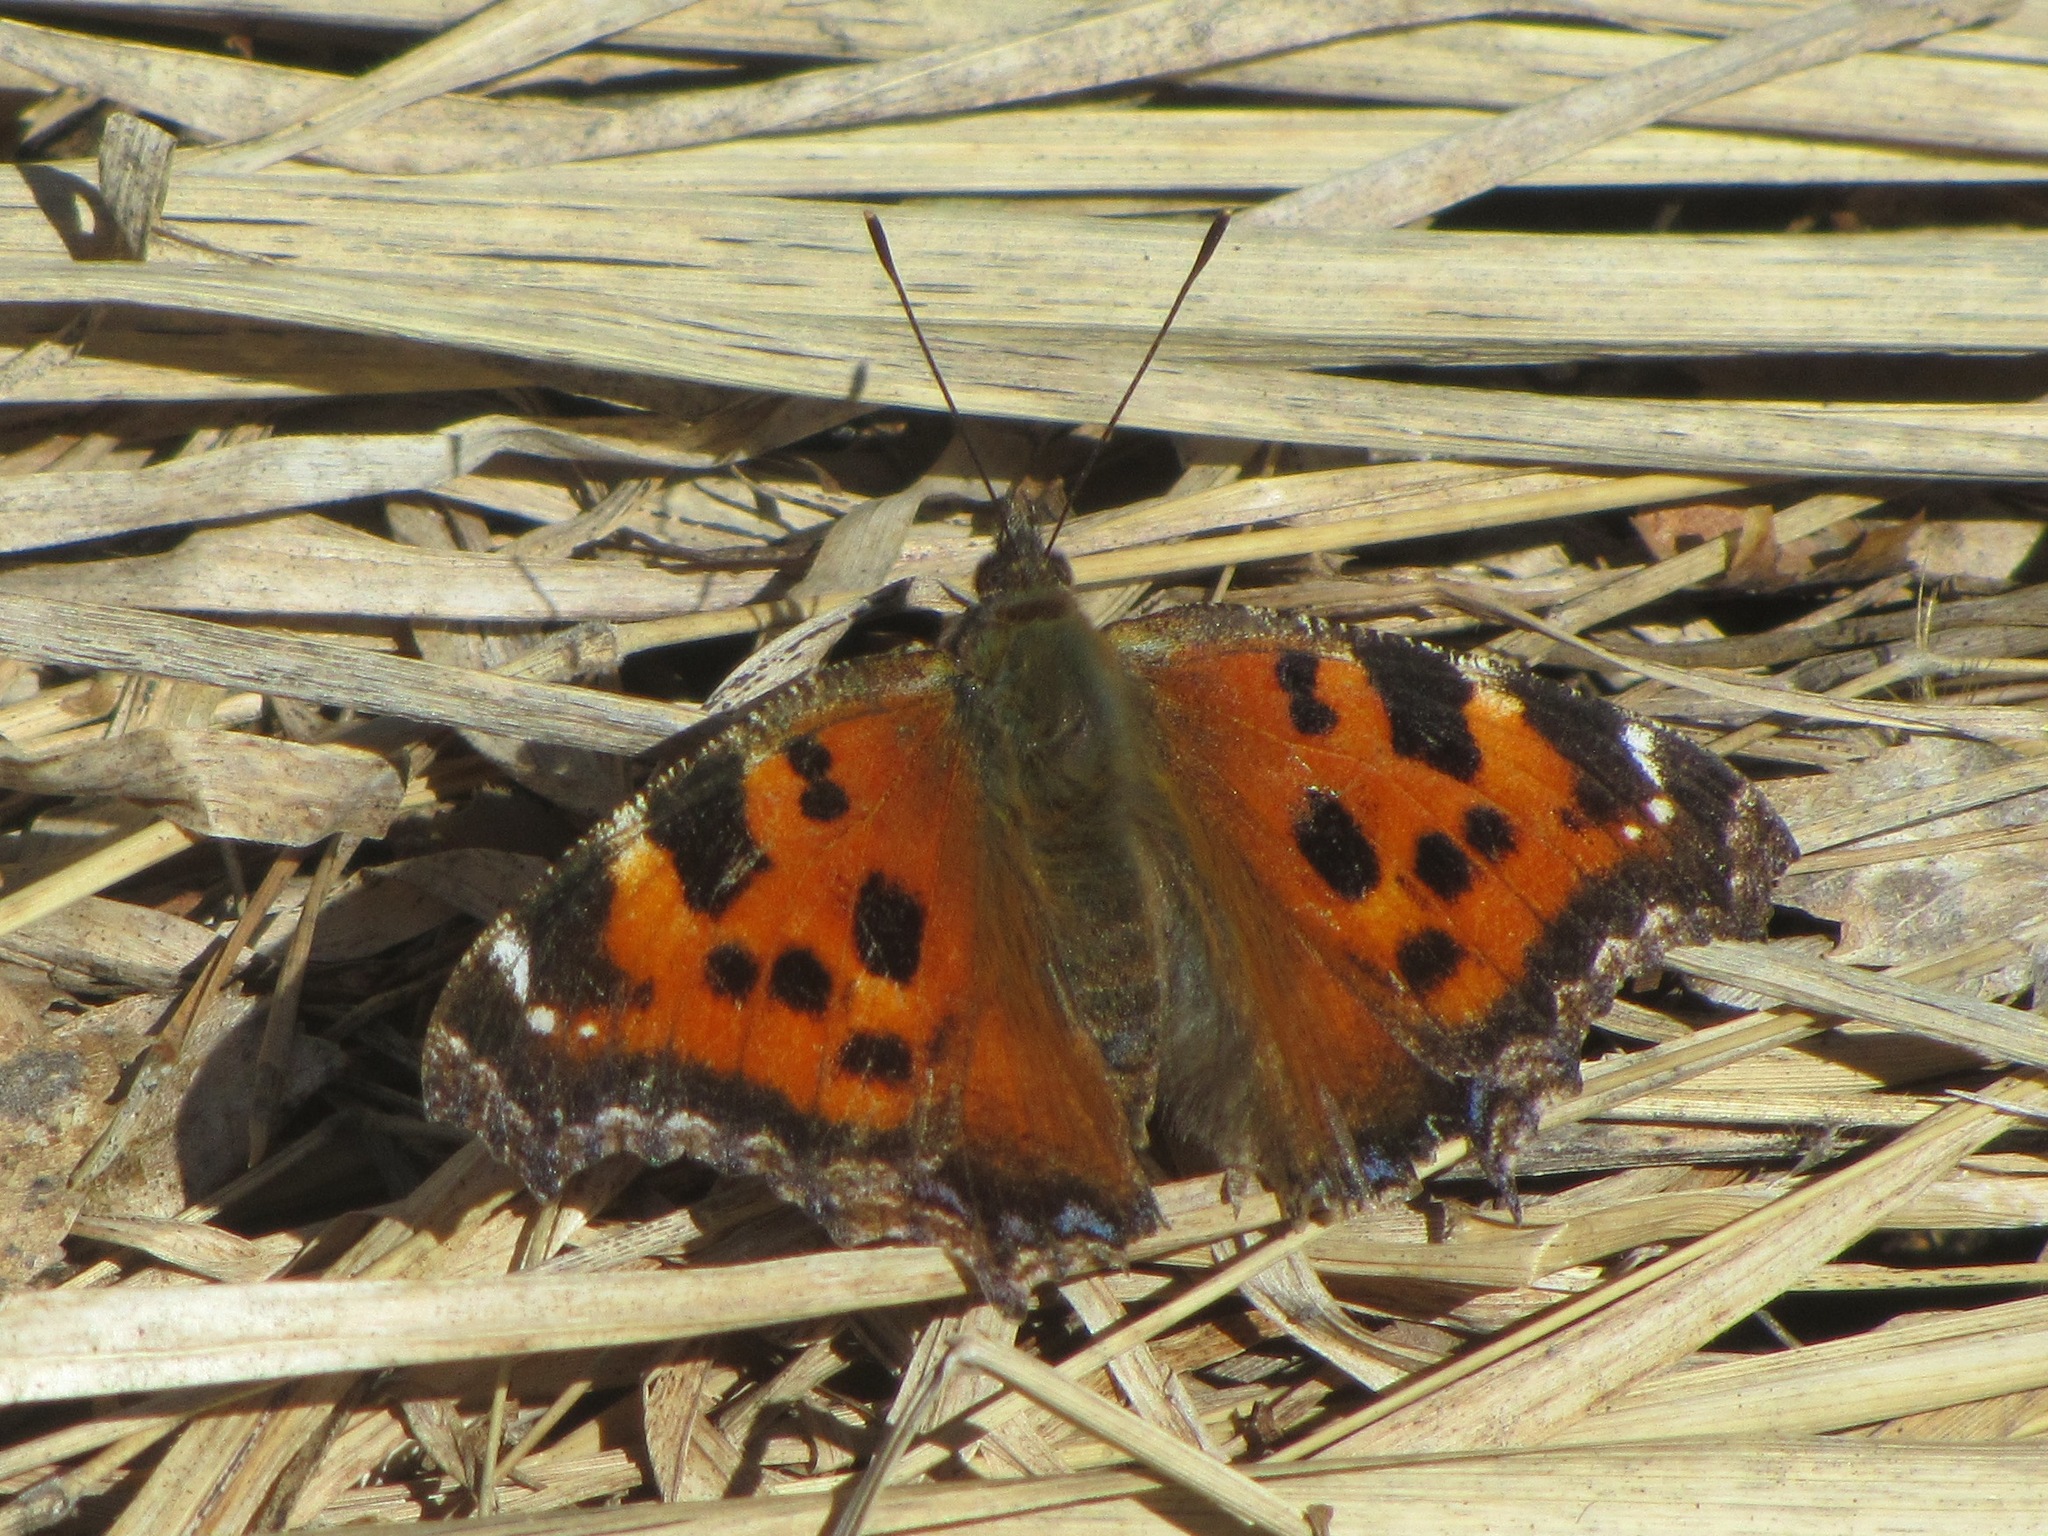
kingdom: Animalia
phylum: Arthropoda
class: Insecta
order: Lepidoptera
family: Nymphalidae
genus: Nymphalis
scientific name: Nymphalis xanthomelas
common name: Scarce tortoiseshell
